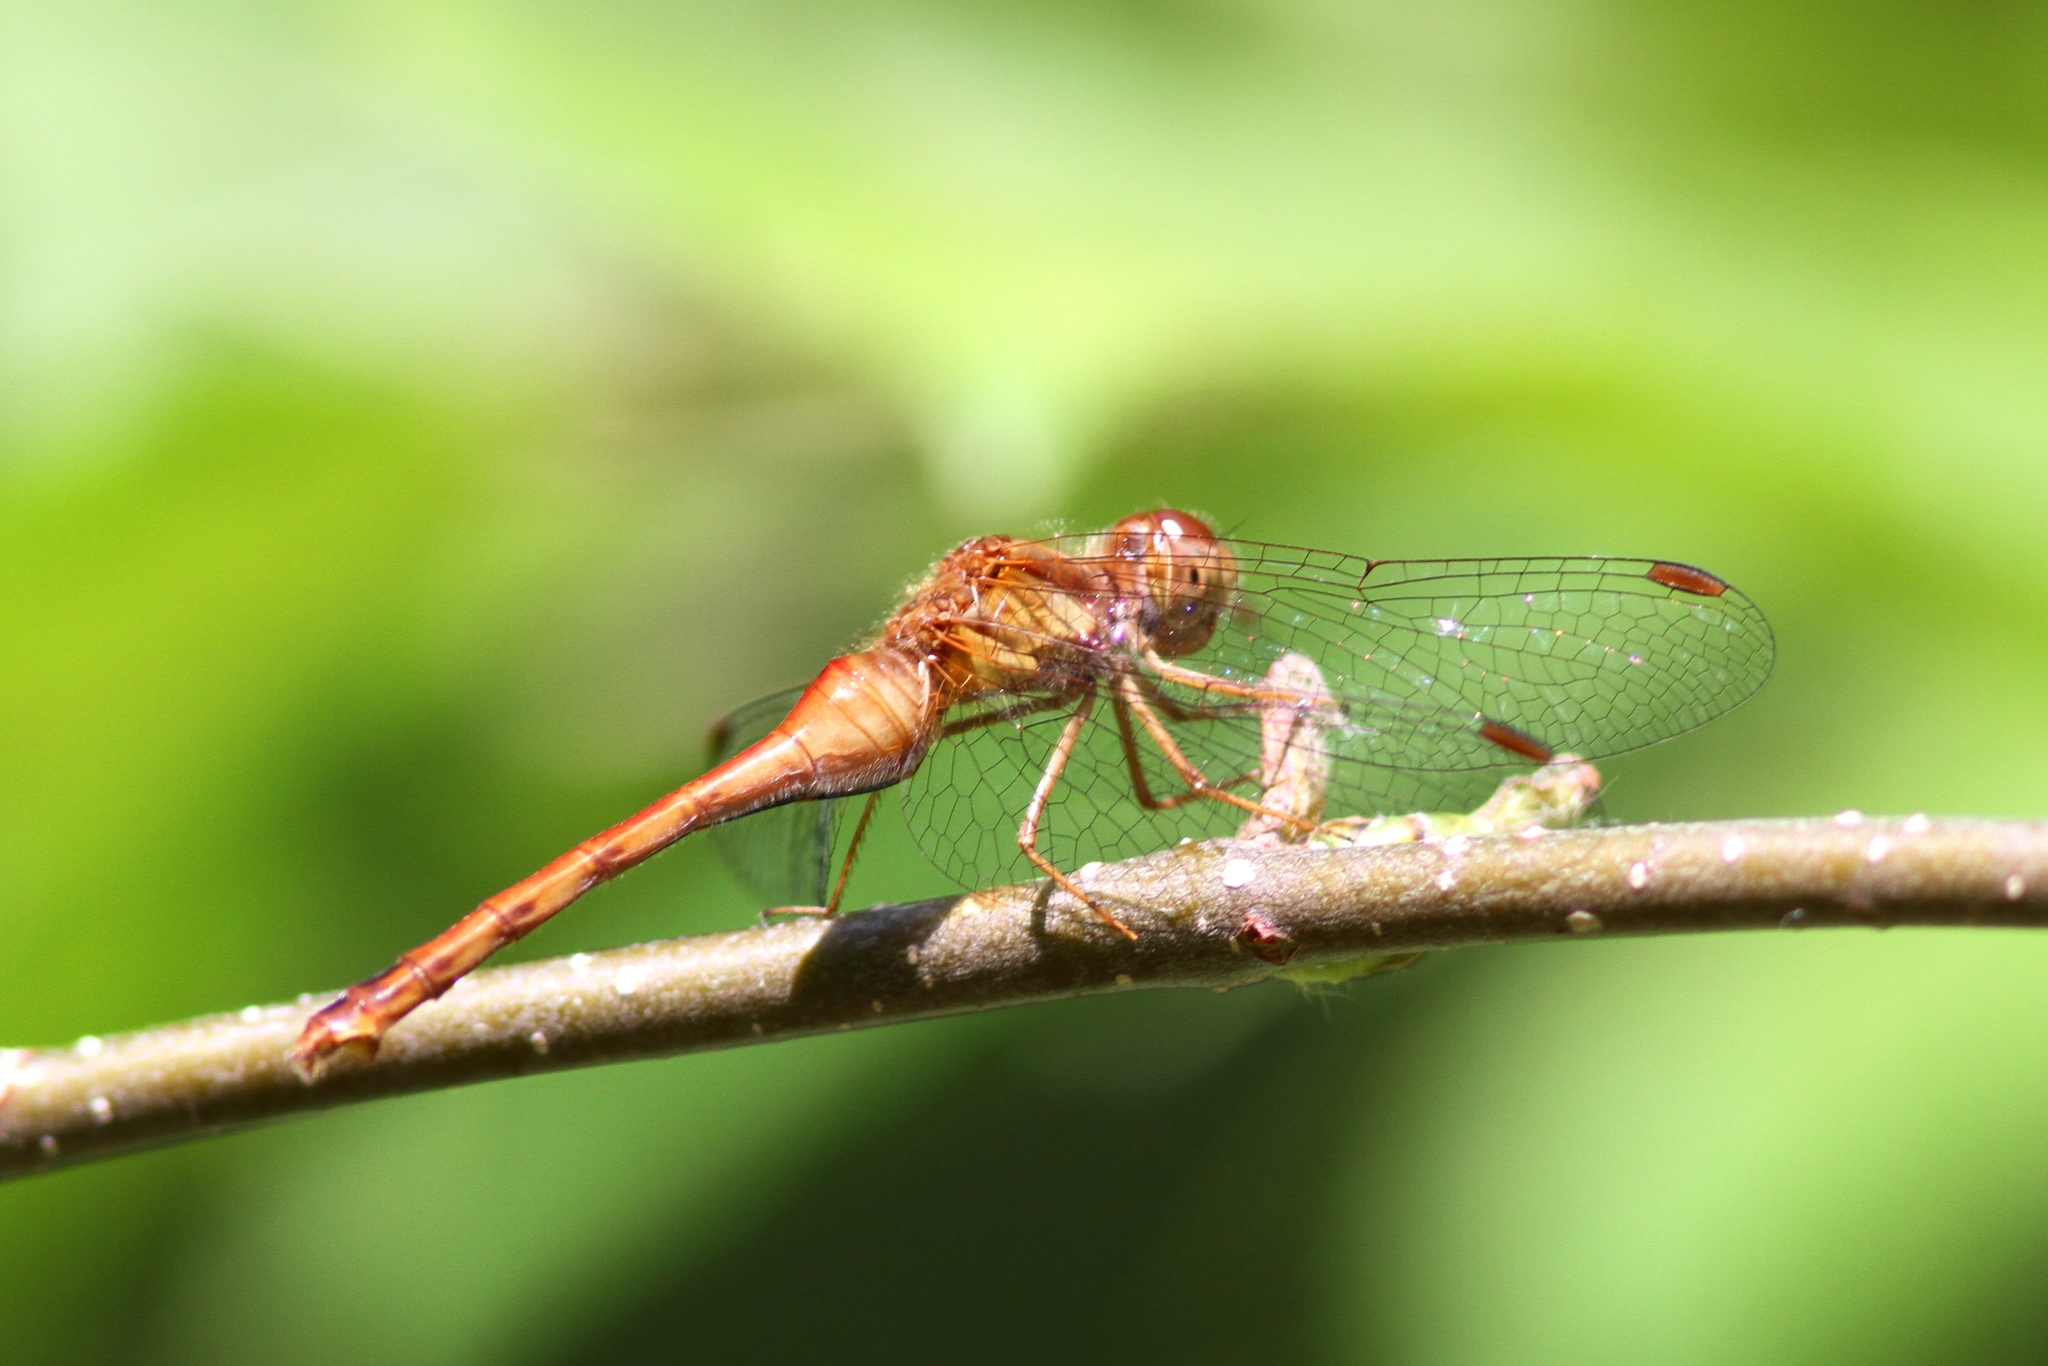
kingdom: Animalia
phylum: Arthropoda
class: Insecta
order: Odonata
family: Libellulidae
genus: Sympetrum
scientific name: Sympetrum vicinum
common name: Autumn meadowhawk
